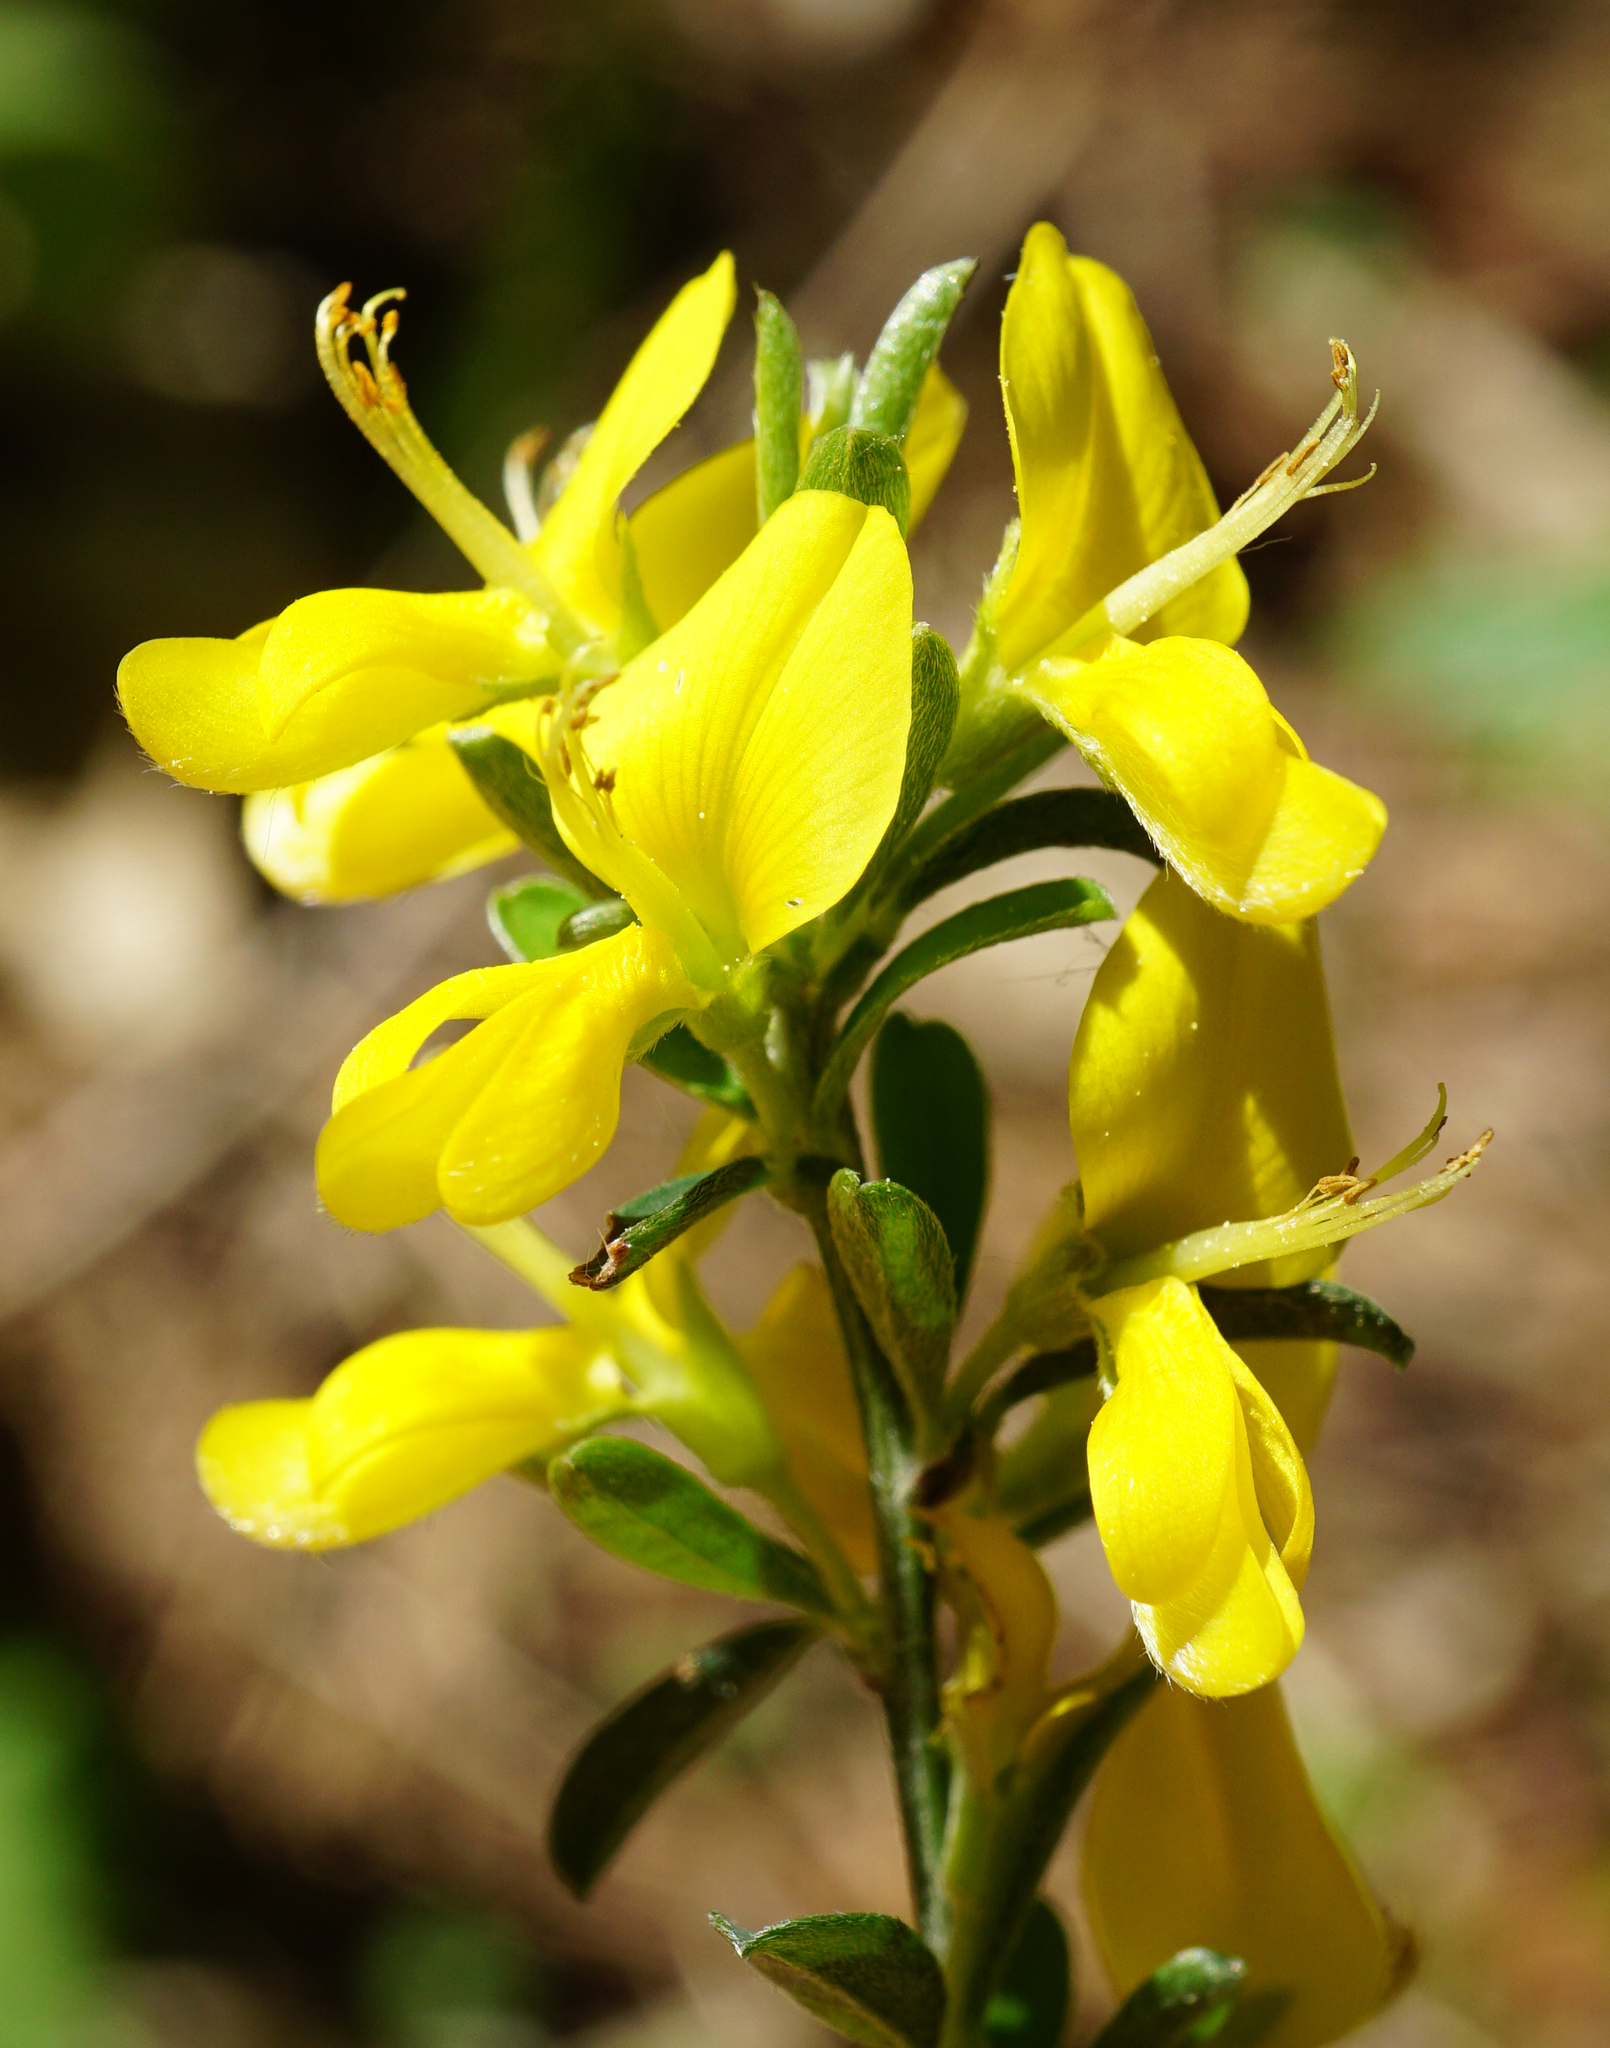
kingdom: Plantae
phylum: Tracheophyta
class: Magnoliopsida
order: Fabales
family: Fabaceae
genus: Genista
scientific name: Genista pilosa
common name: Hairy greenweed
